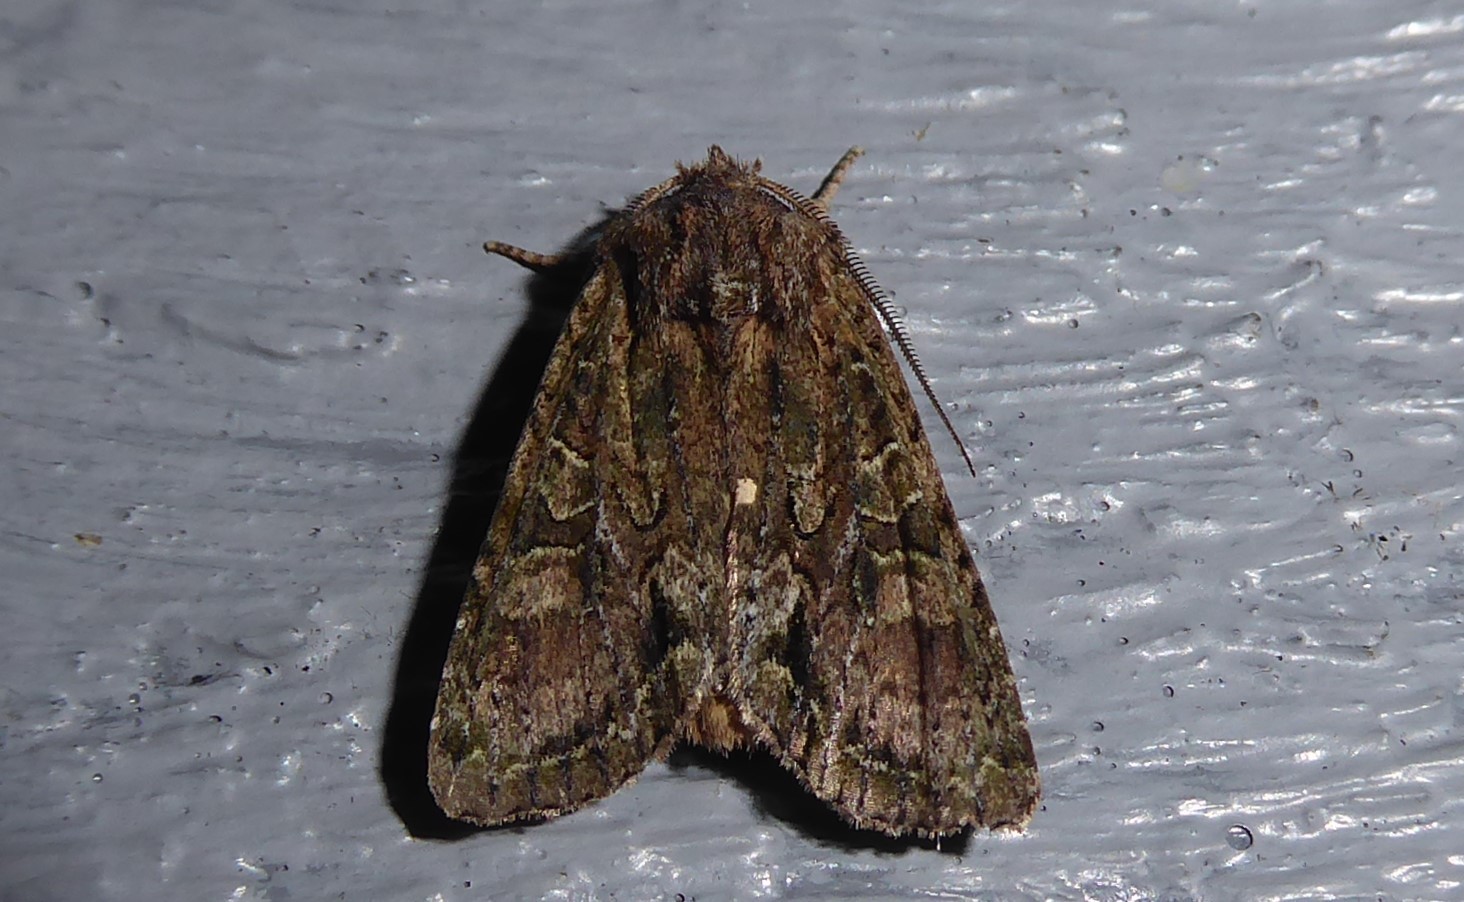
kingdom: Animalia
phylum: Arthropoda
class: Insecta
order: Lepidoptera
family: Noctuidae
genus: Ichneutica
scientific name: Ichneutica mutans
